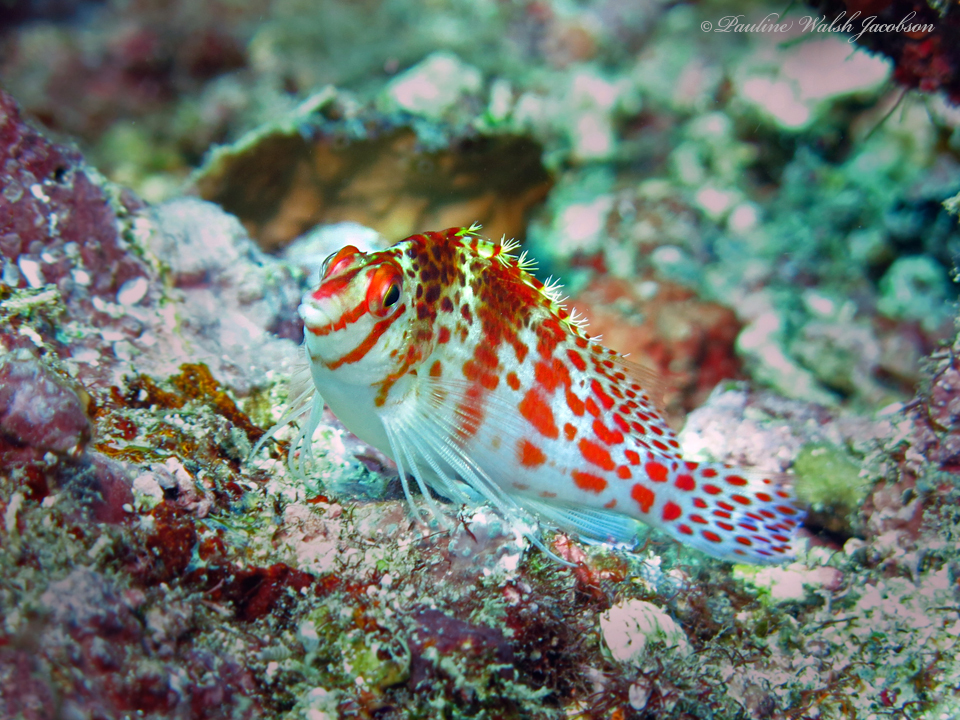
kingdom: Animalia
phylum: Chordata
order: Perciformes
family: Cirrhitidae
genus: Cirrhitichthys
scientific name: Cirrhitichthys falco
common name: Coral hawkfish
